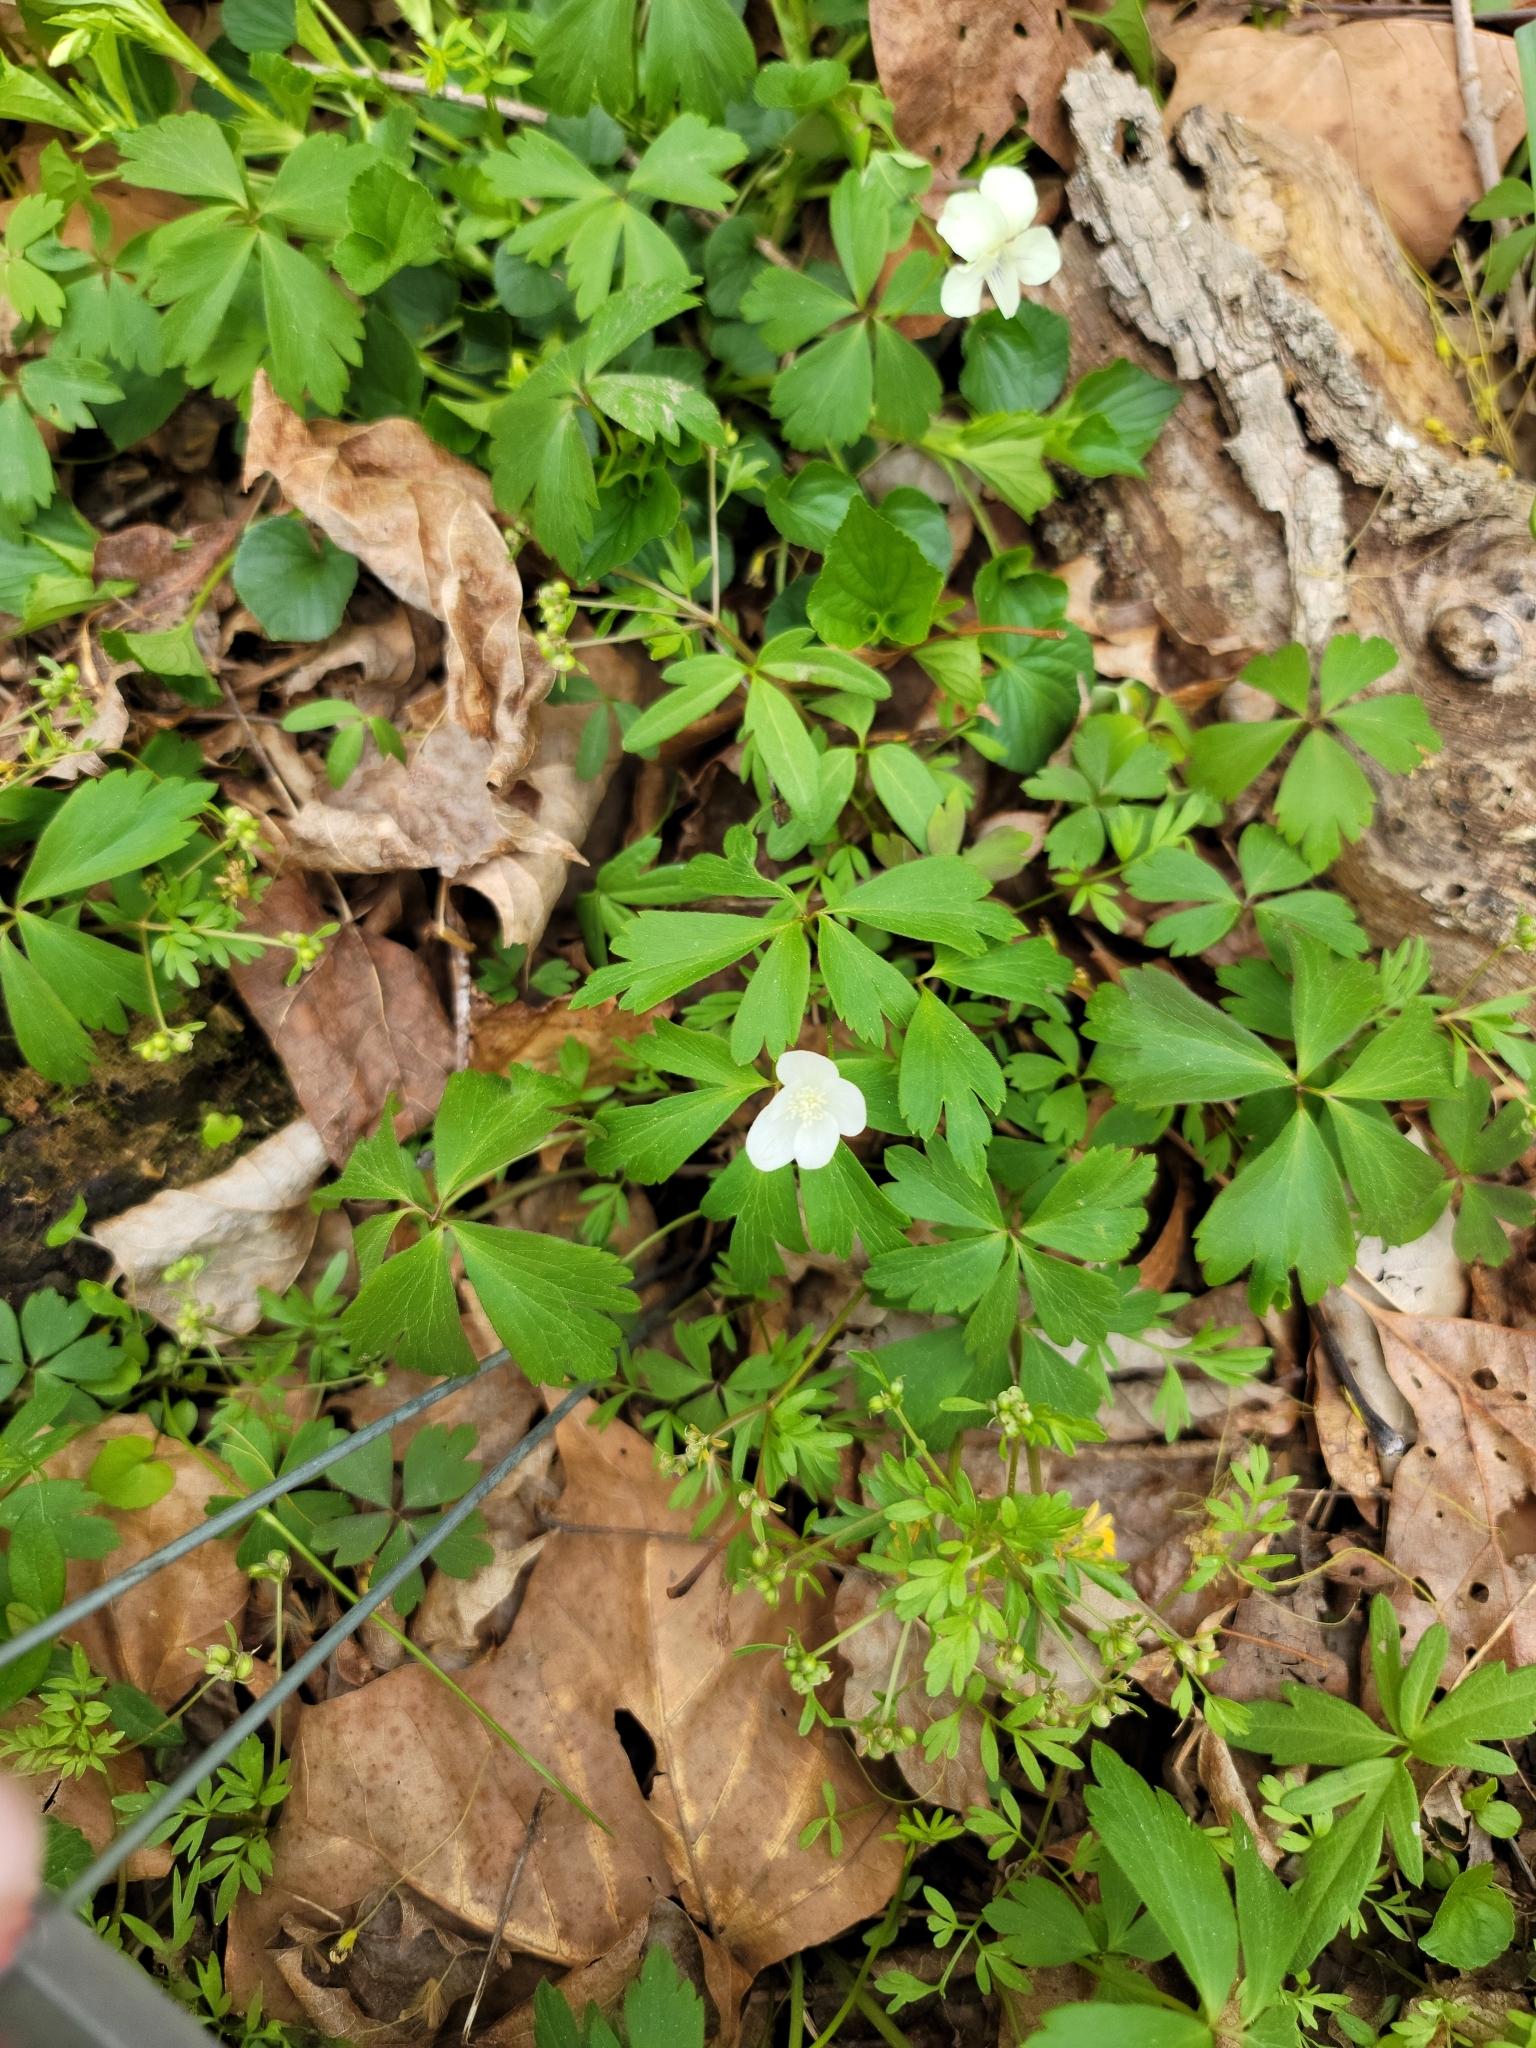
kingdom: Plantae
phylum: Tracheophyta
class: Magnoliopsida
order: Ranunculales
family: Ranunculaceae
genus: Anemone
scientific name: Anemone quinquefolia
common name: Wood anemone
